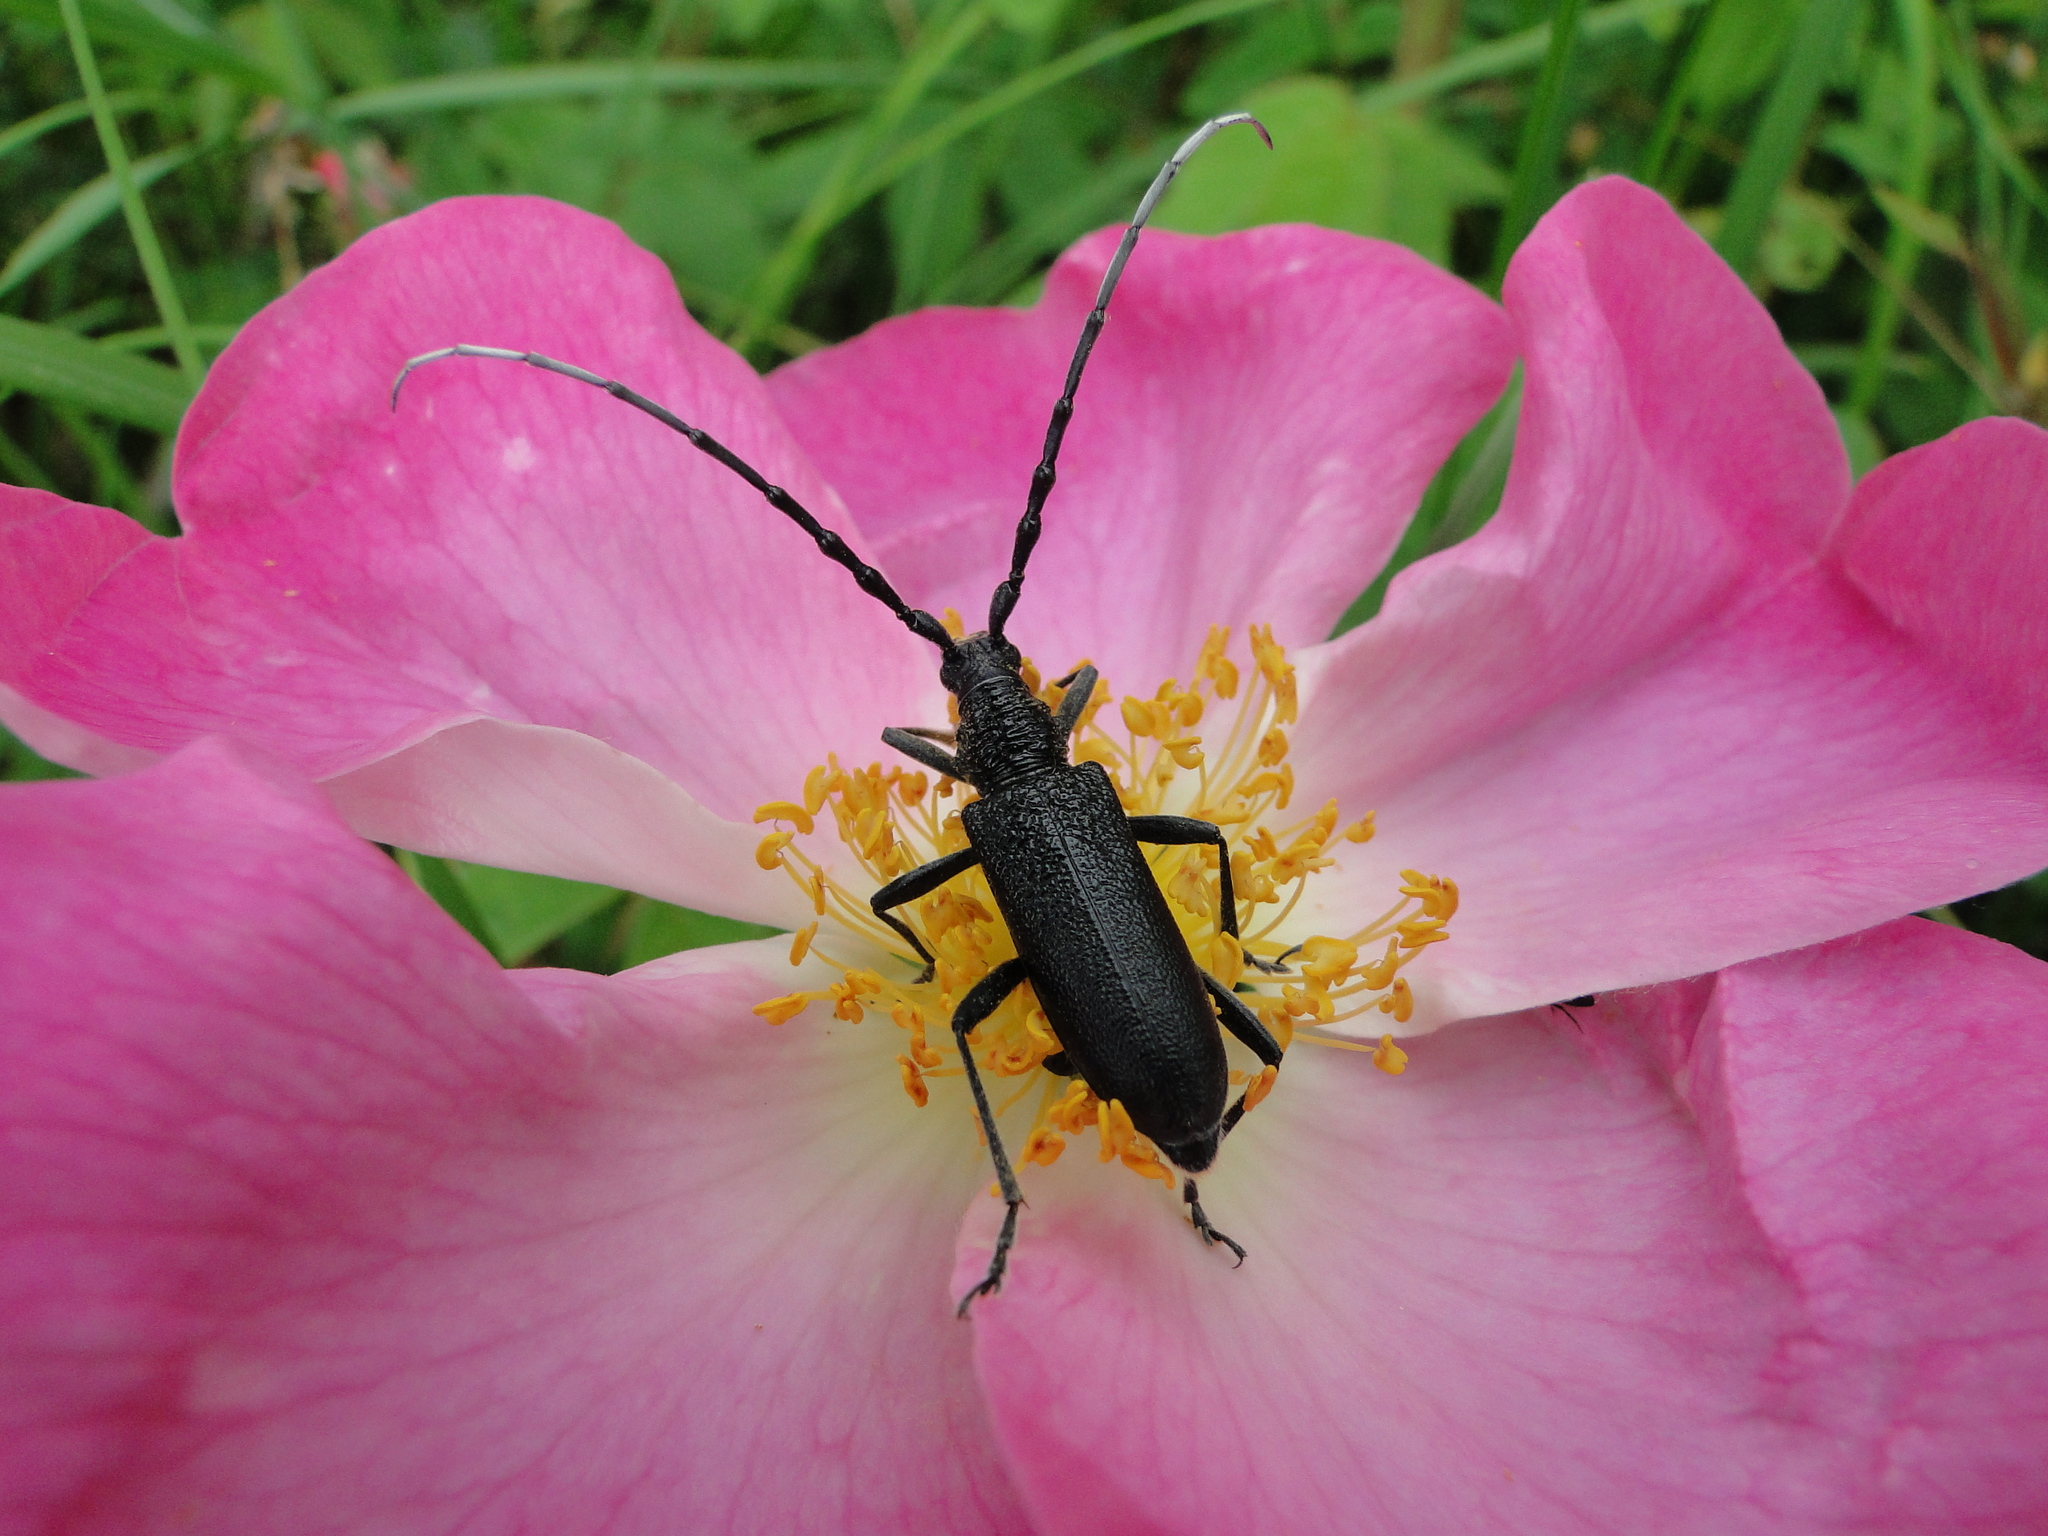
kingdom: Animalia
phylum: Arthropoda
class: Insecta
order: Coleoptera
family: Cerambycidae
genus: Cerambyx
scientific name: Cerambyx scopolii
